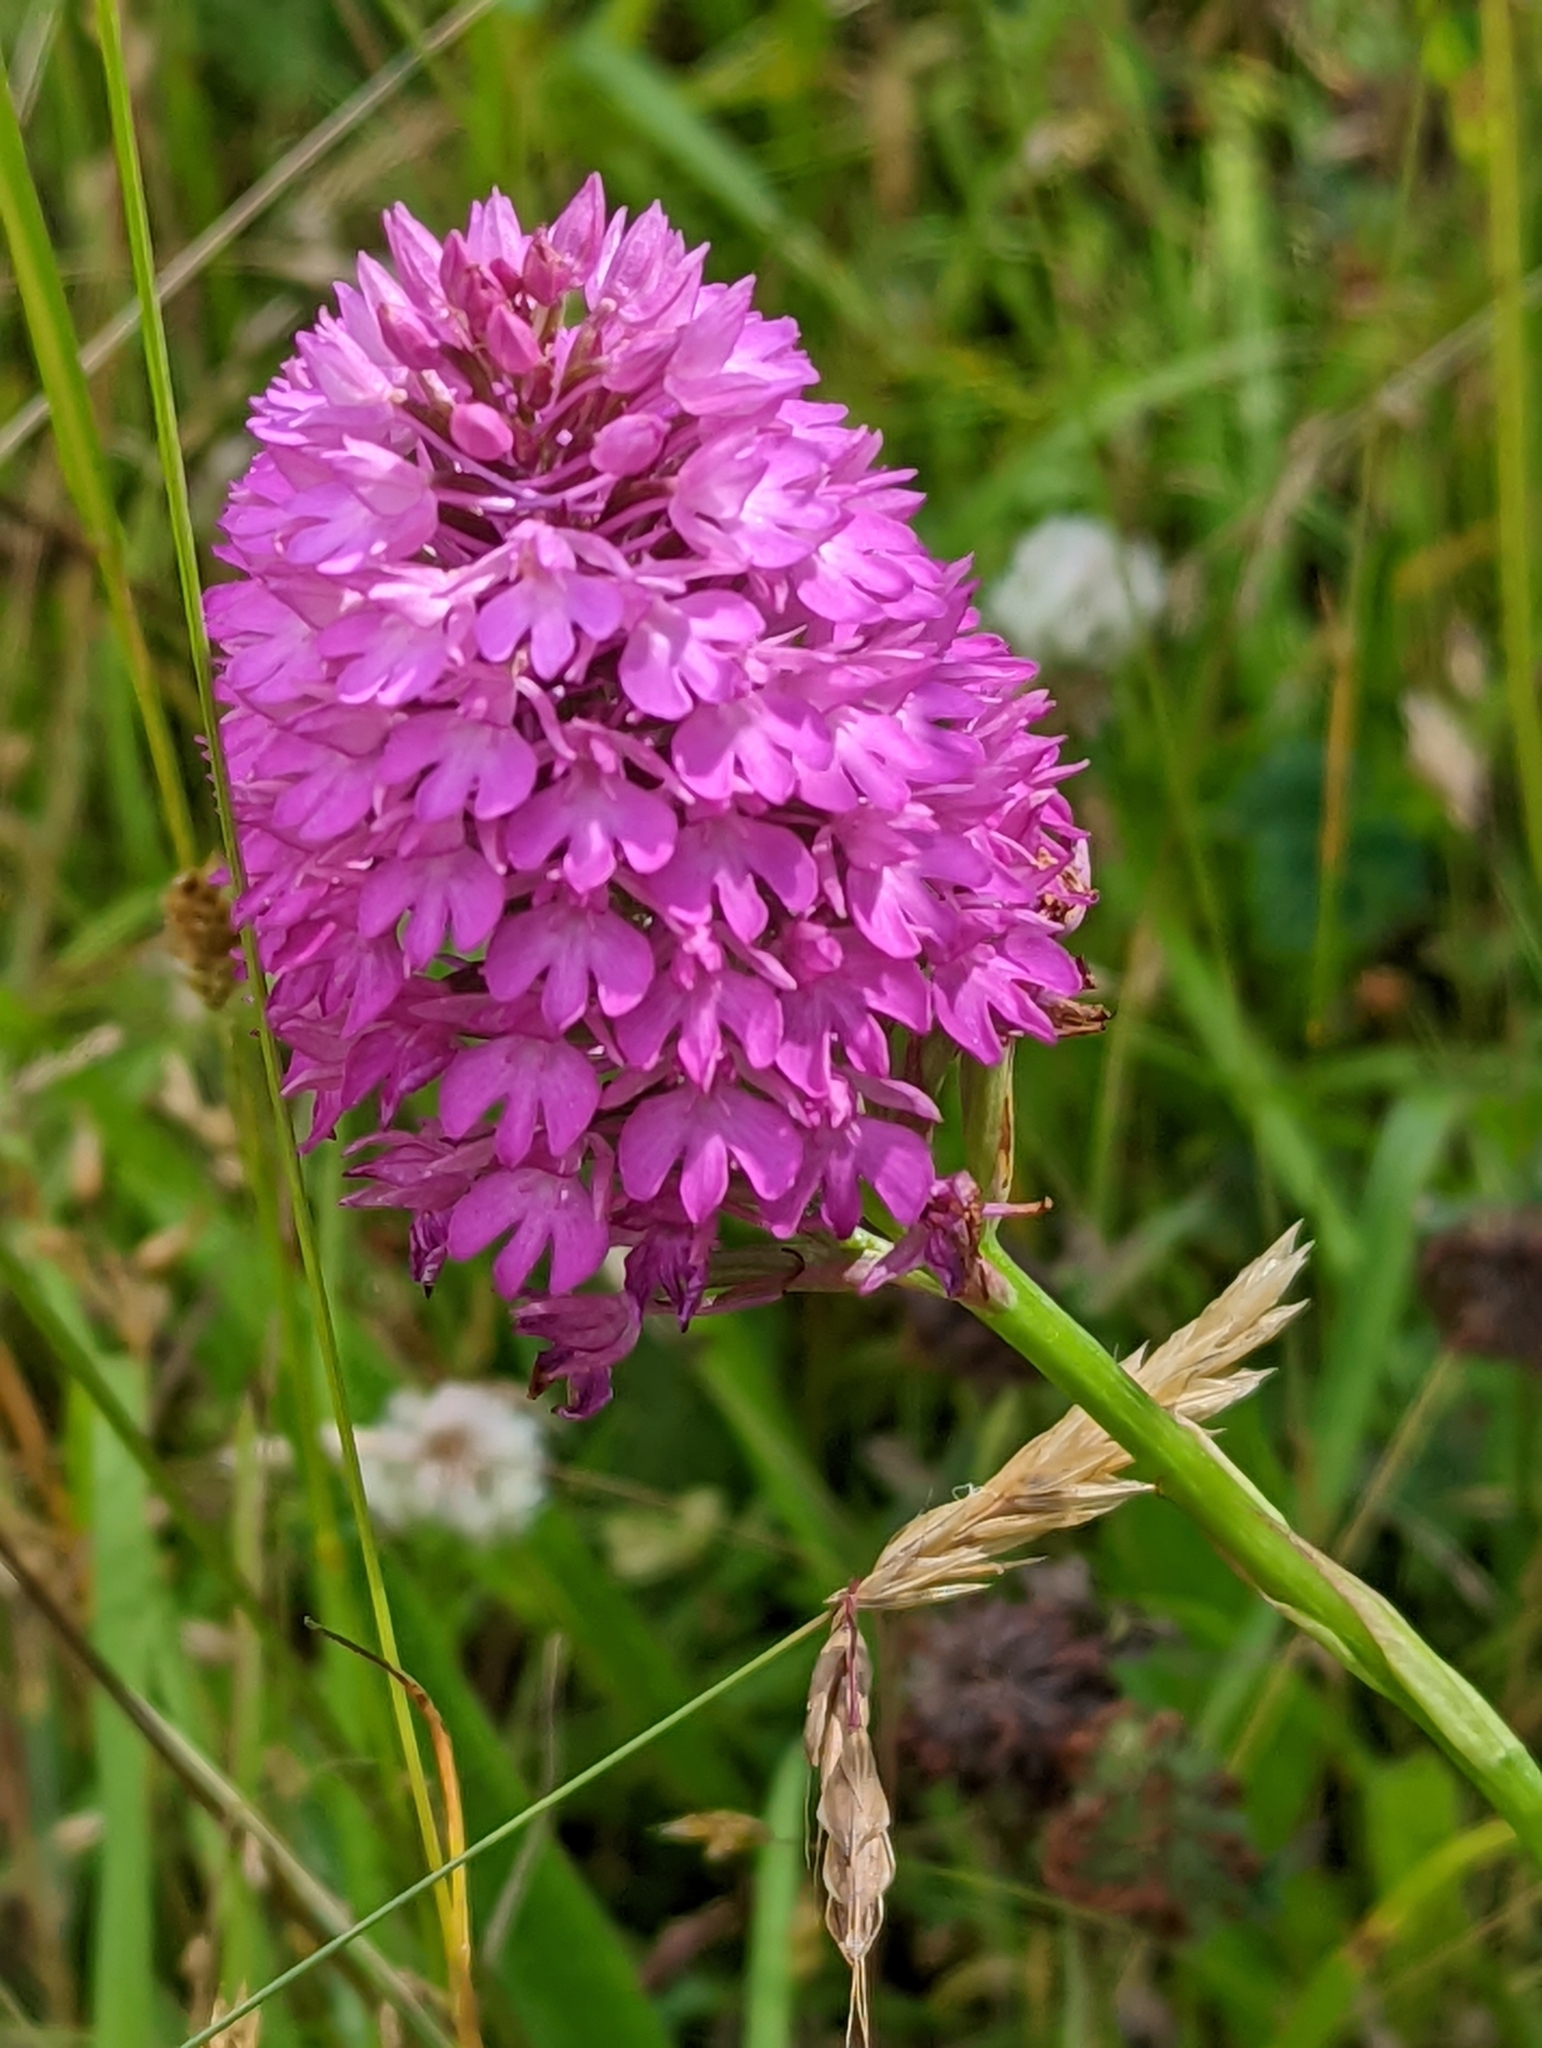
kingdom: Plantae
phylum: Tracheophyta
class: Liliopsida
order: Asparagales
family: Orchidaceae
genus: Anacamptis
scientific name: Anacamptis pyramidalis
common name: Pyramidal orchid
